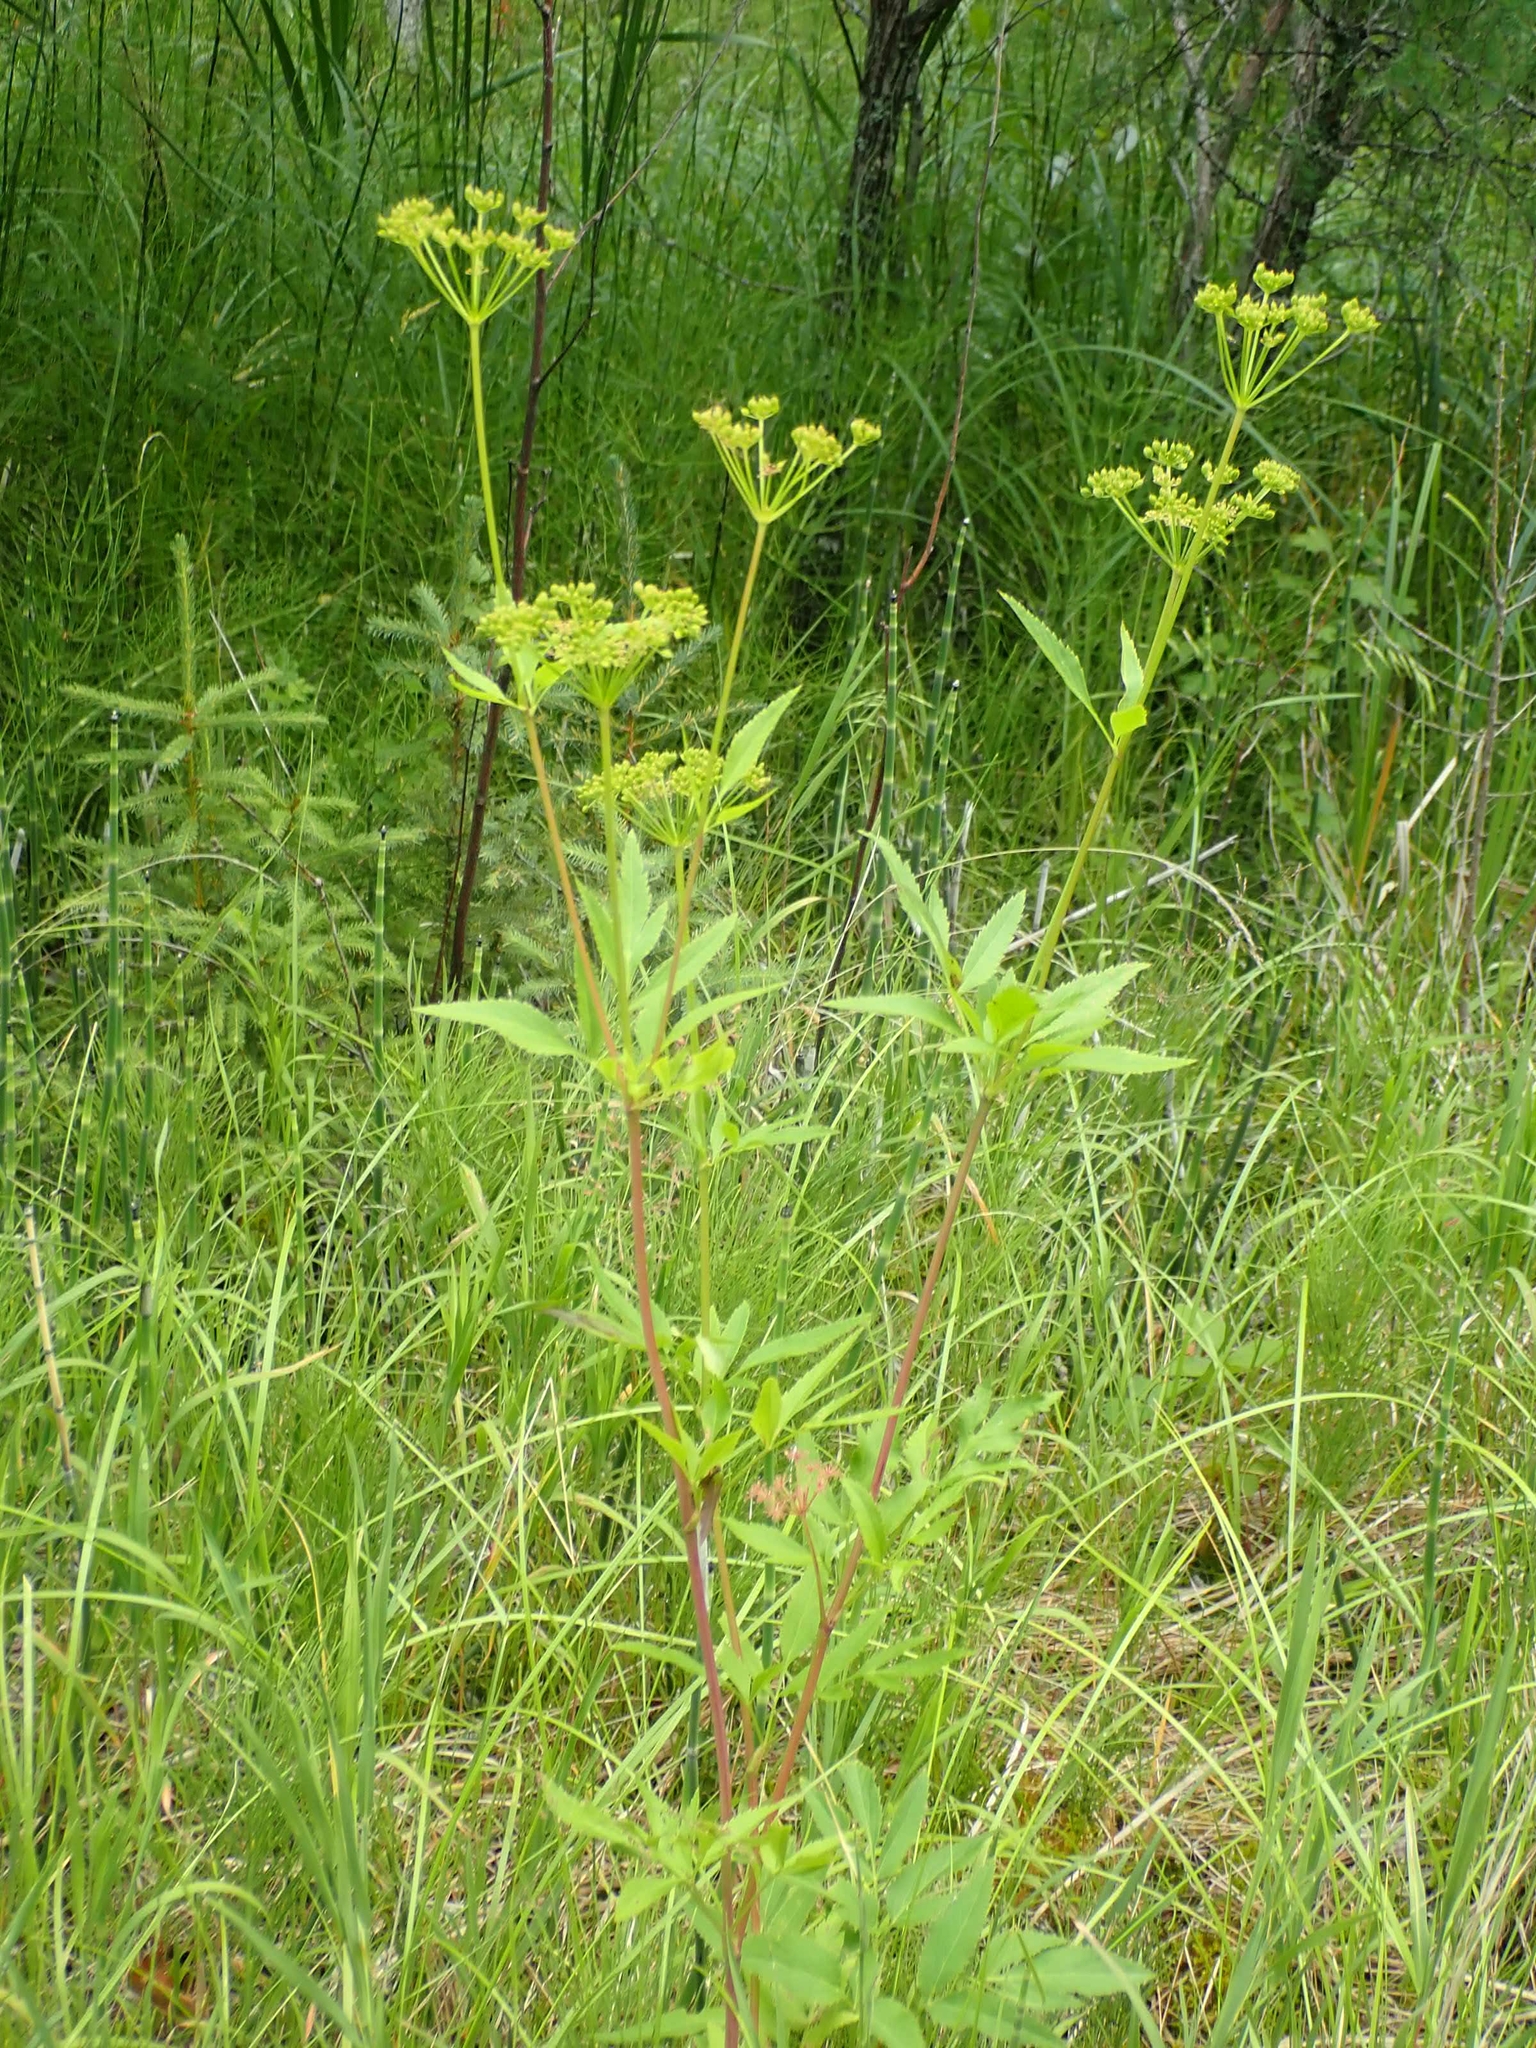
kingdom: Plantae
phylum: Tracheophyta
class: Magnoliopsida
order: Apiales
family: Apiaceae
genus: Zizia
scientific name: Zizia aurea
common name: Golden alexanders
